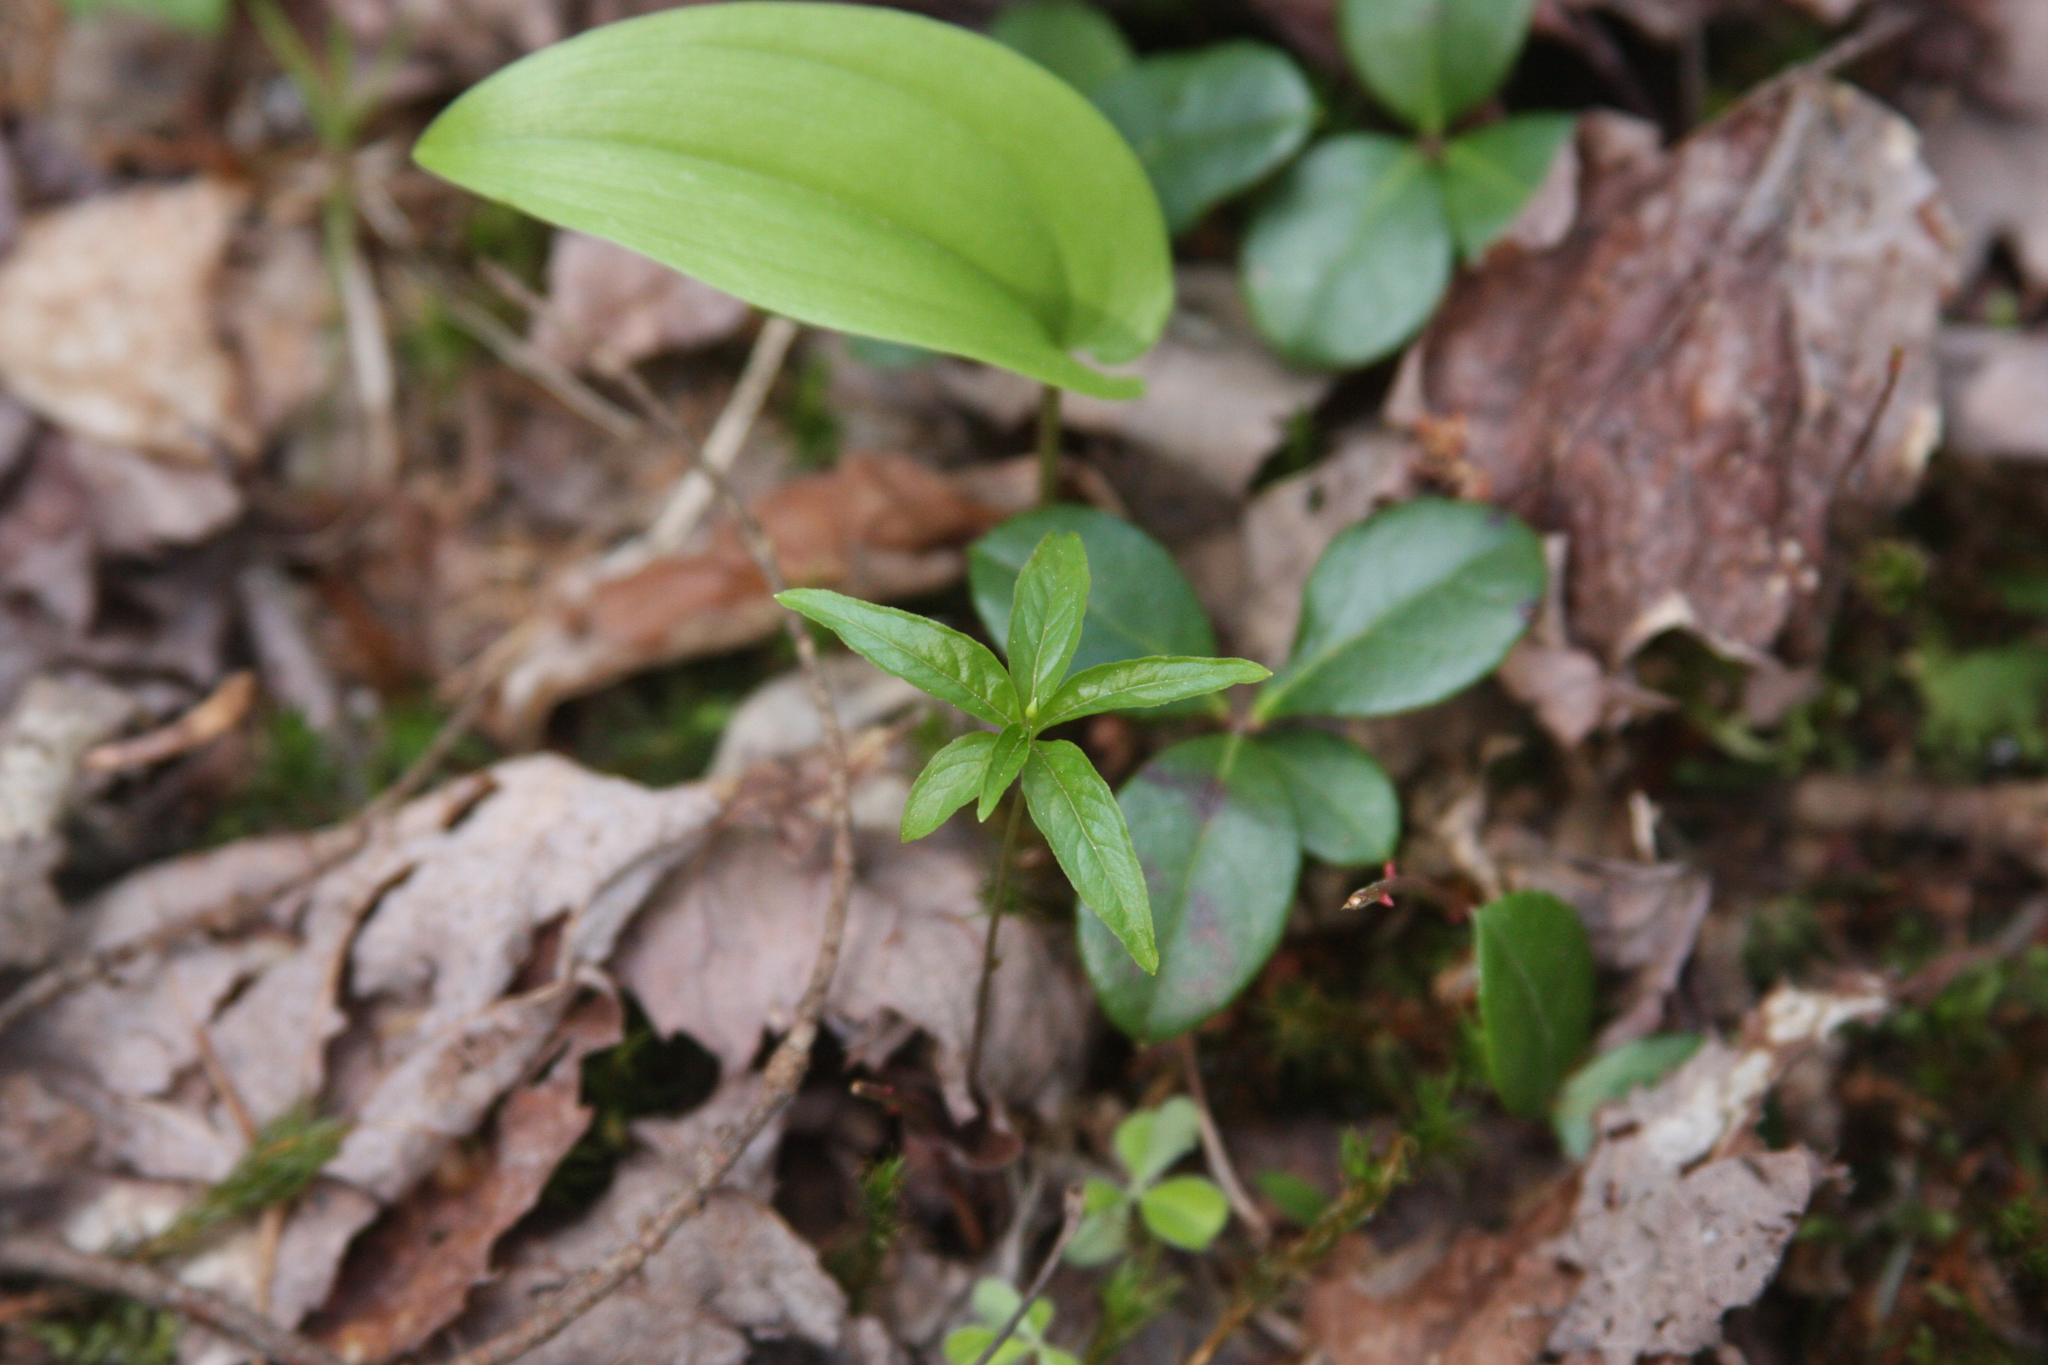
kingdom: Plantae
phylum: Tracheophyta
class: Magnoliopsida
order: Ericales
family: Primulaceae
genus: Lysimachia
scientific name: Lysimachia borealis
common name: American starflower
